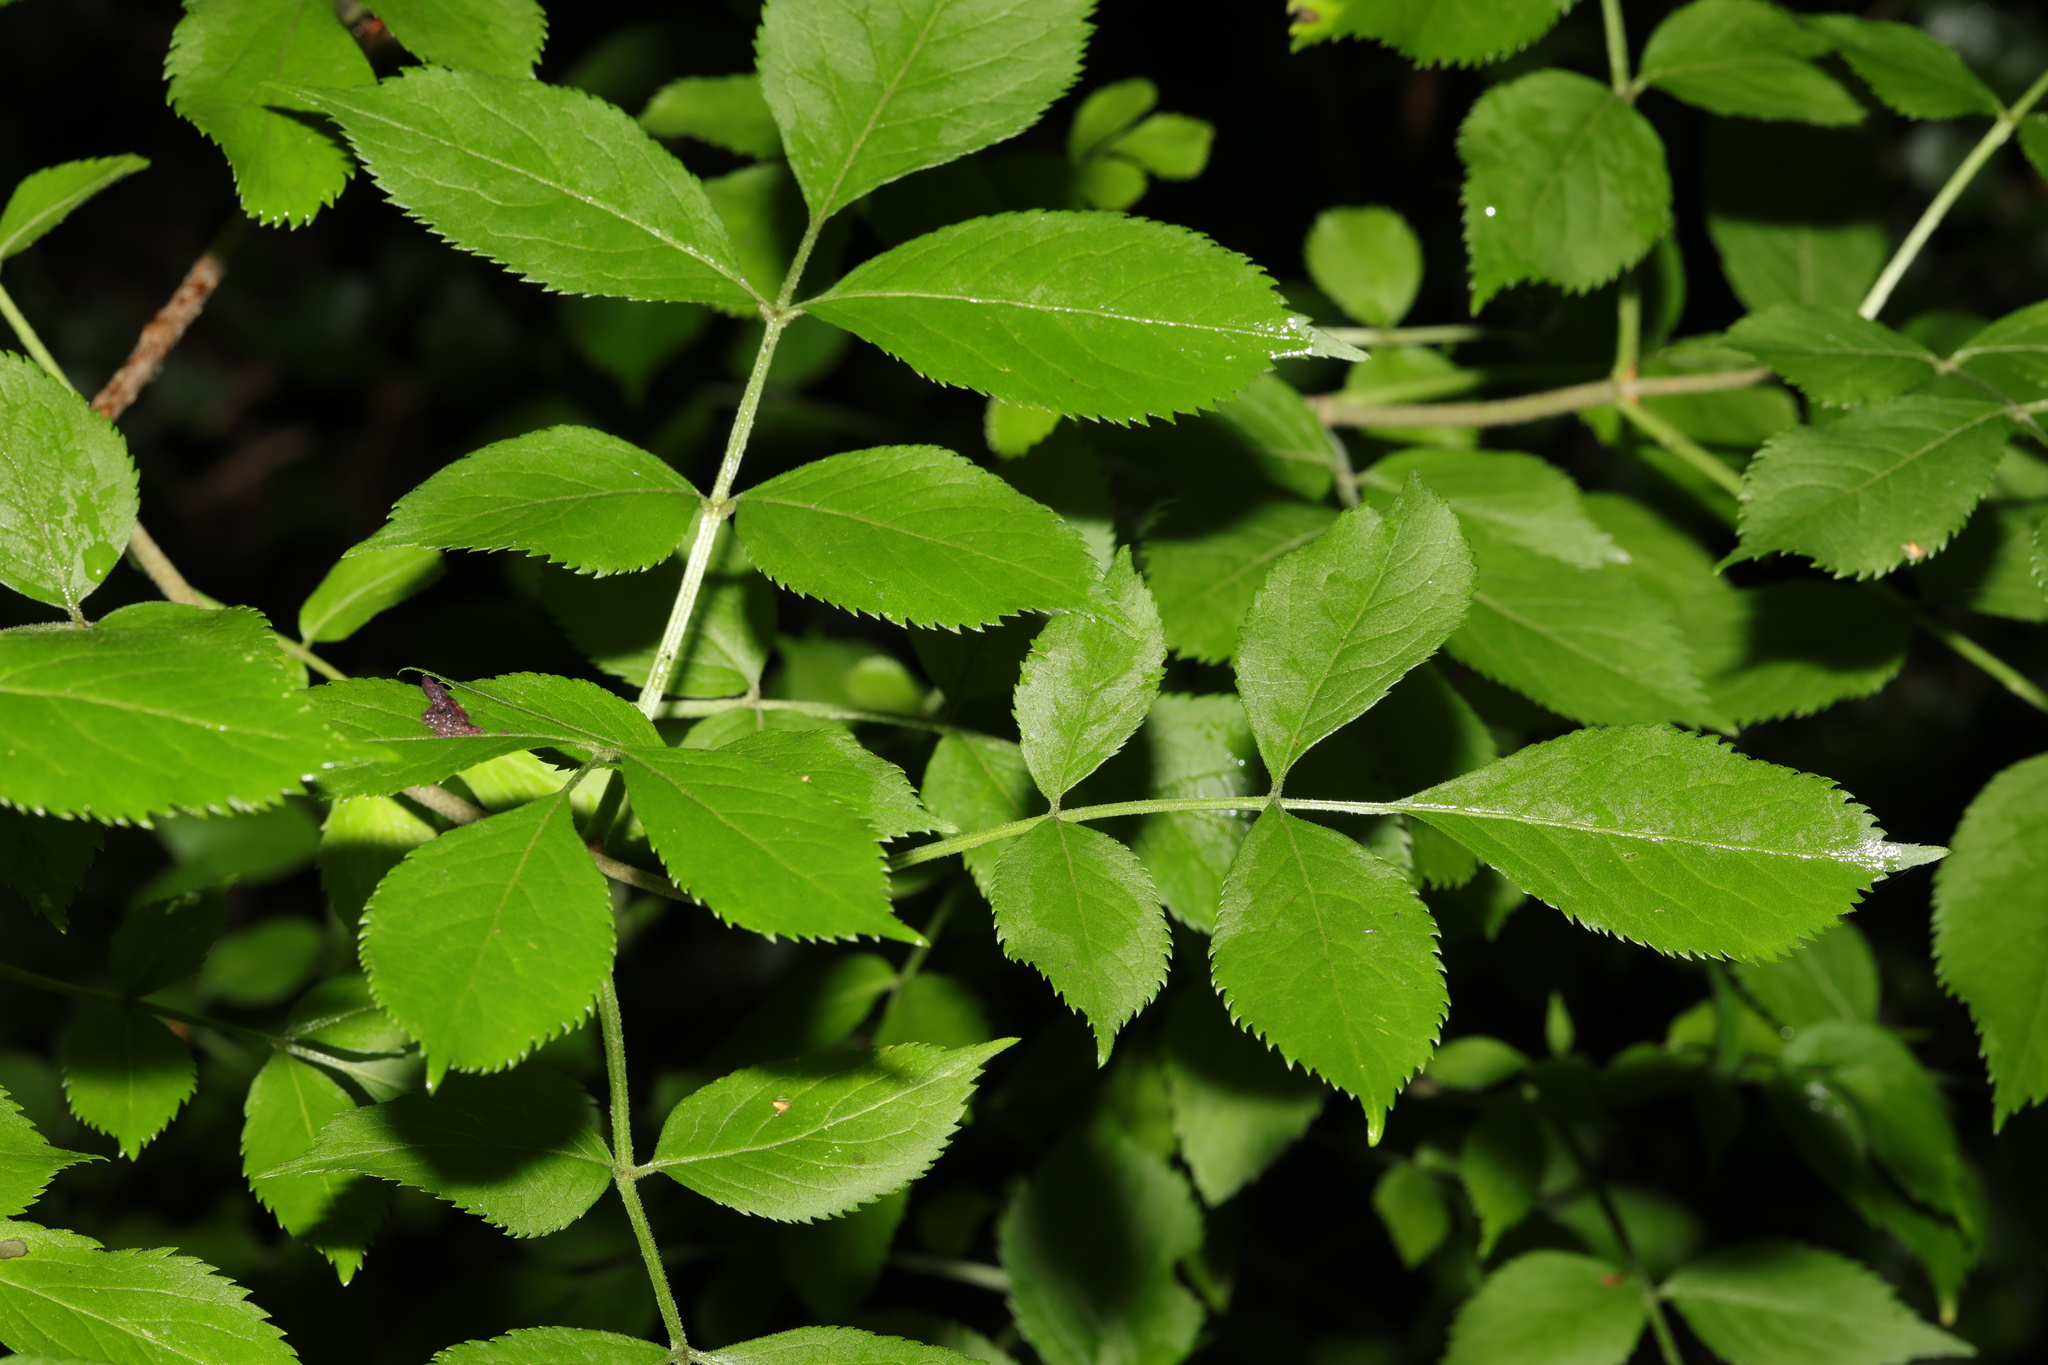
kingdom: Plantae
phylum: Tracheophyta
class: Magnoliopsida
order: Dipsacales
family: Viburnaceae
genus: Sambucus
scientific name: Sambucus nigra
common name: Elder
